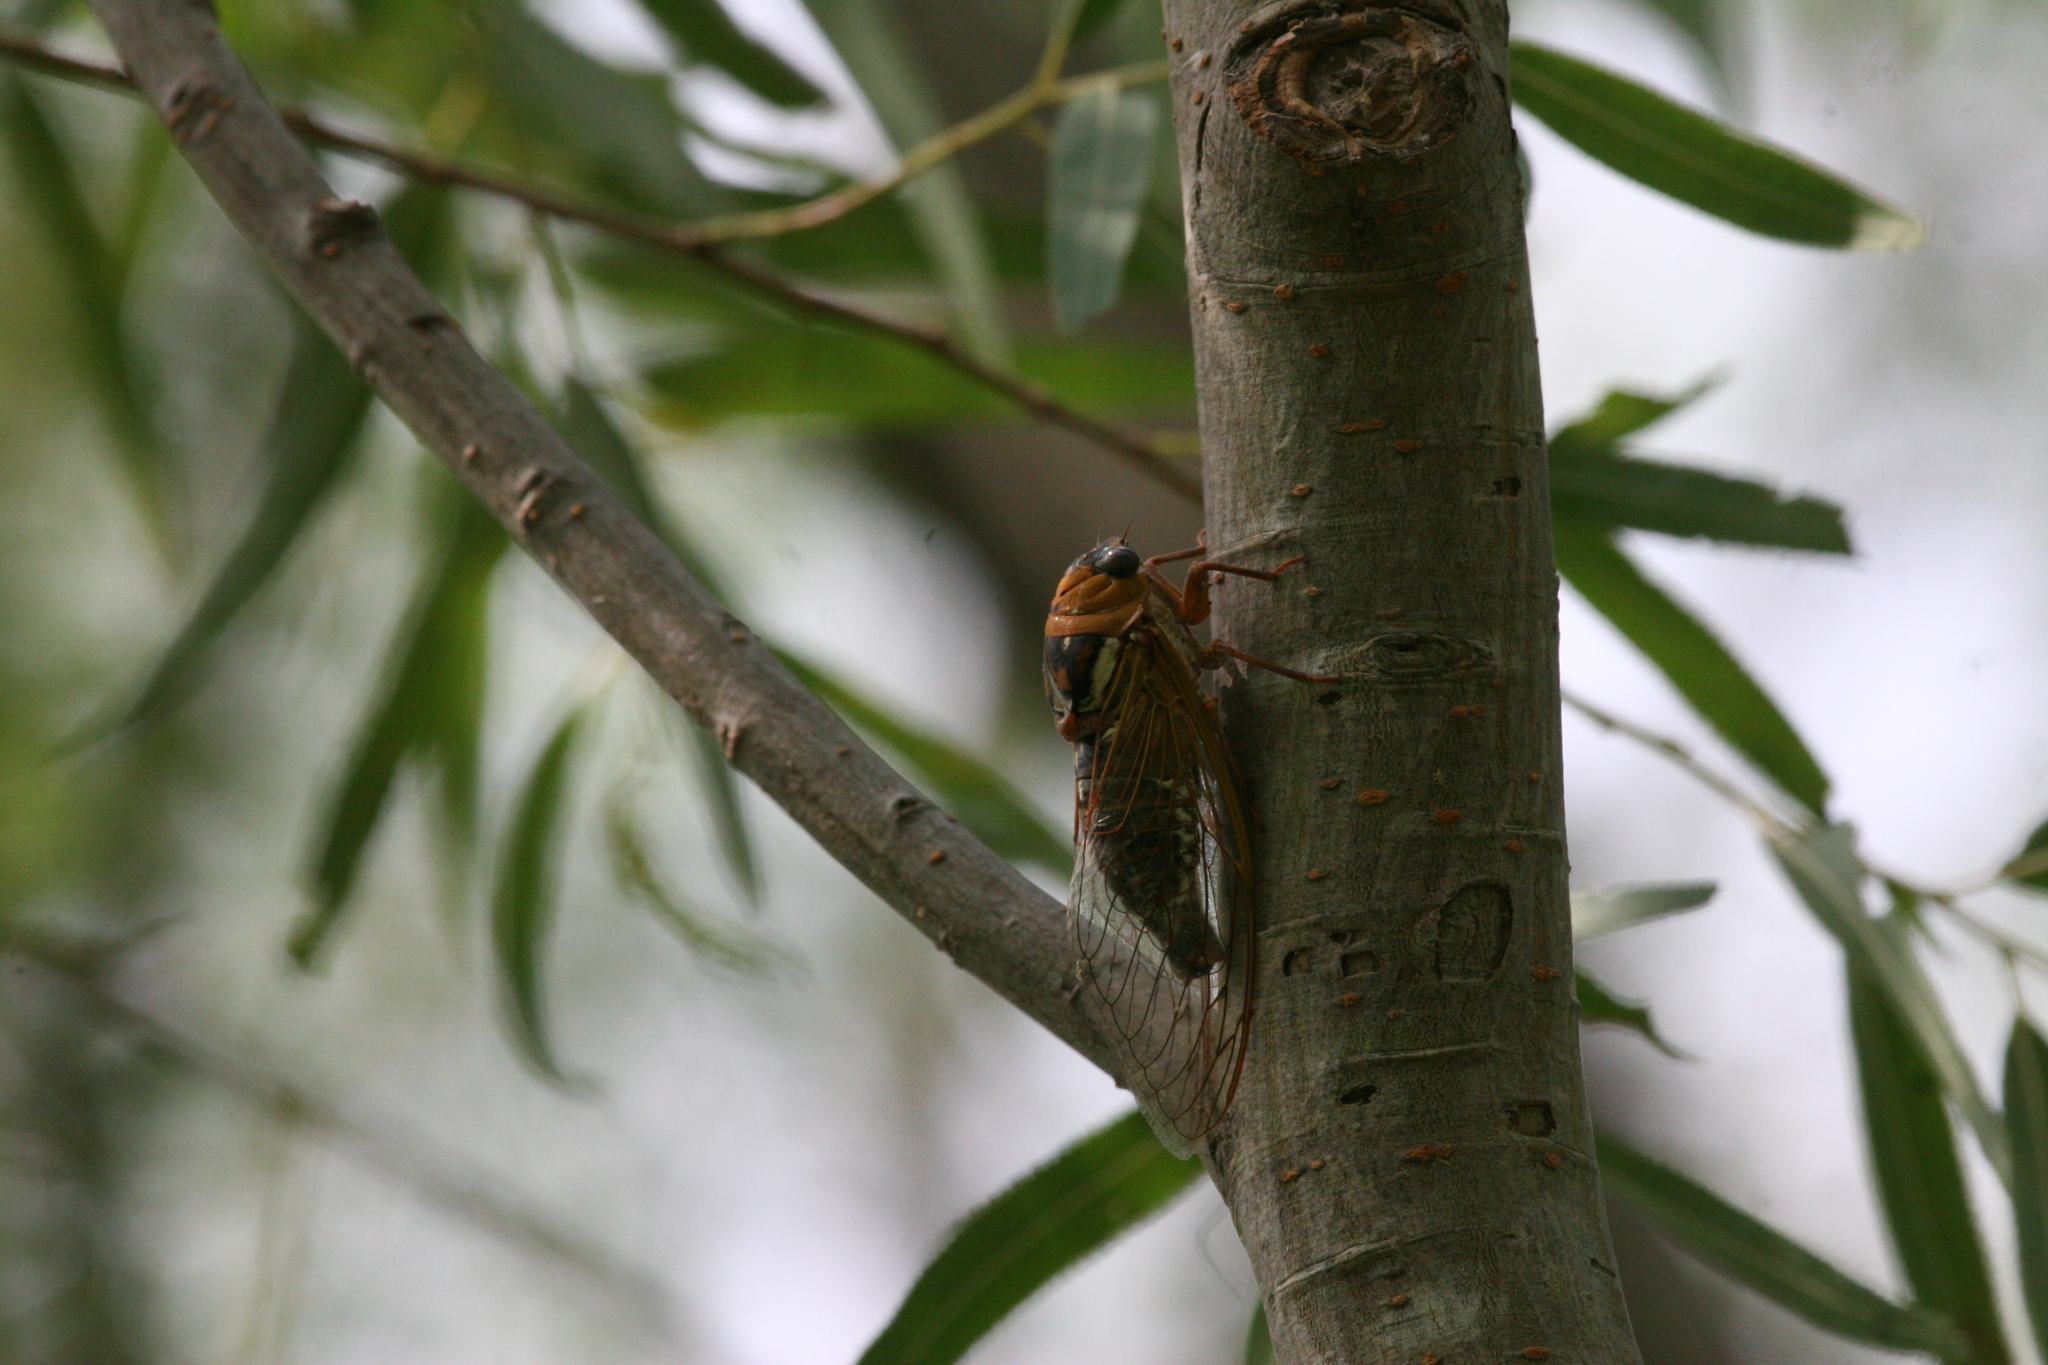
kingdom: Animalia
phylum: Arthropoda
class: Insecta
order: Hemiptera
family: Cicadidae
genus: Megatibicen
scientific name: Megatibicen pronotalis
